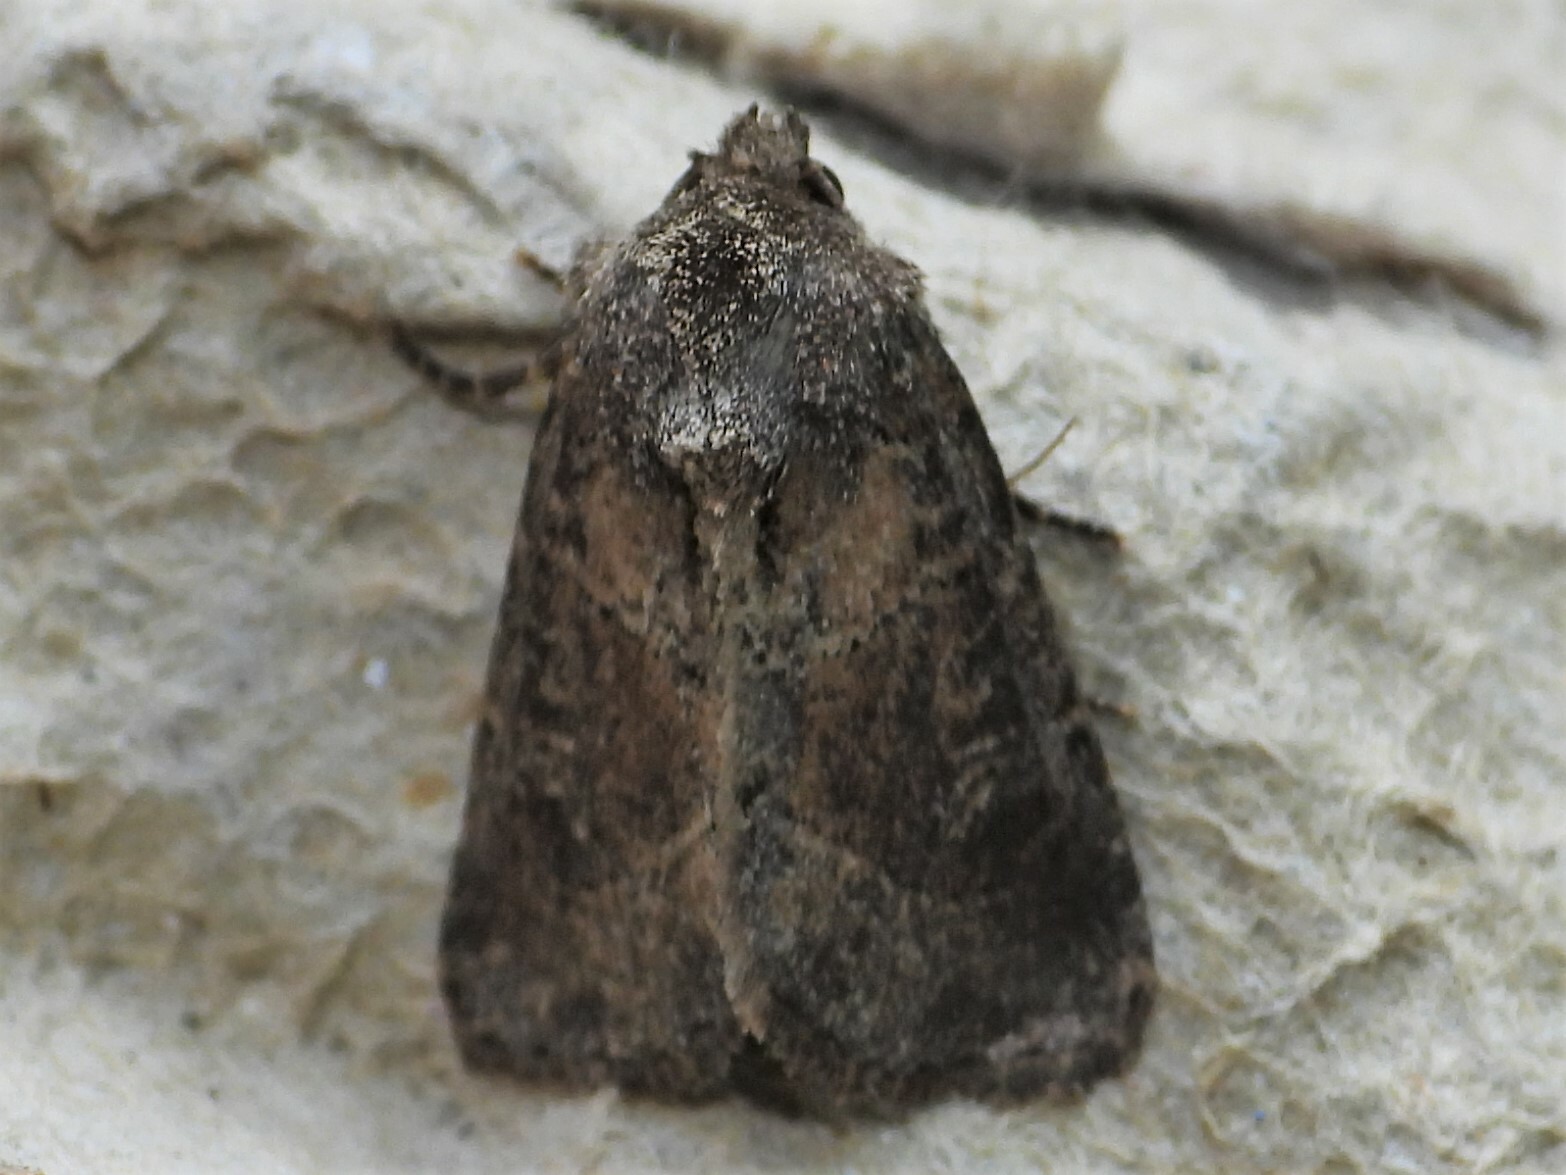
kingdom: Animalia
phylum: Arthropoda
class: Insecta
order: Lepidoptera
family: Noctuidae
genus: Oligia
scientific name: Oligia obtusa
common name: Obtuse sedge borer
